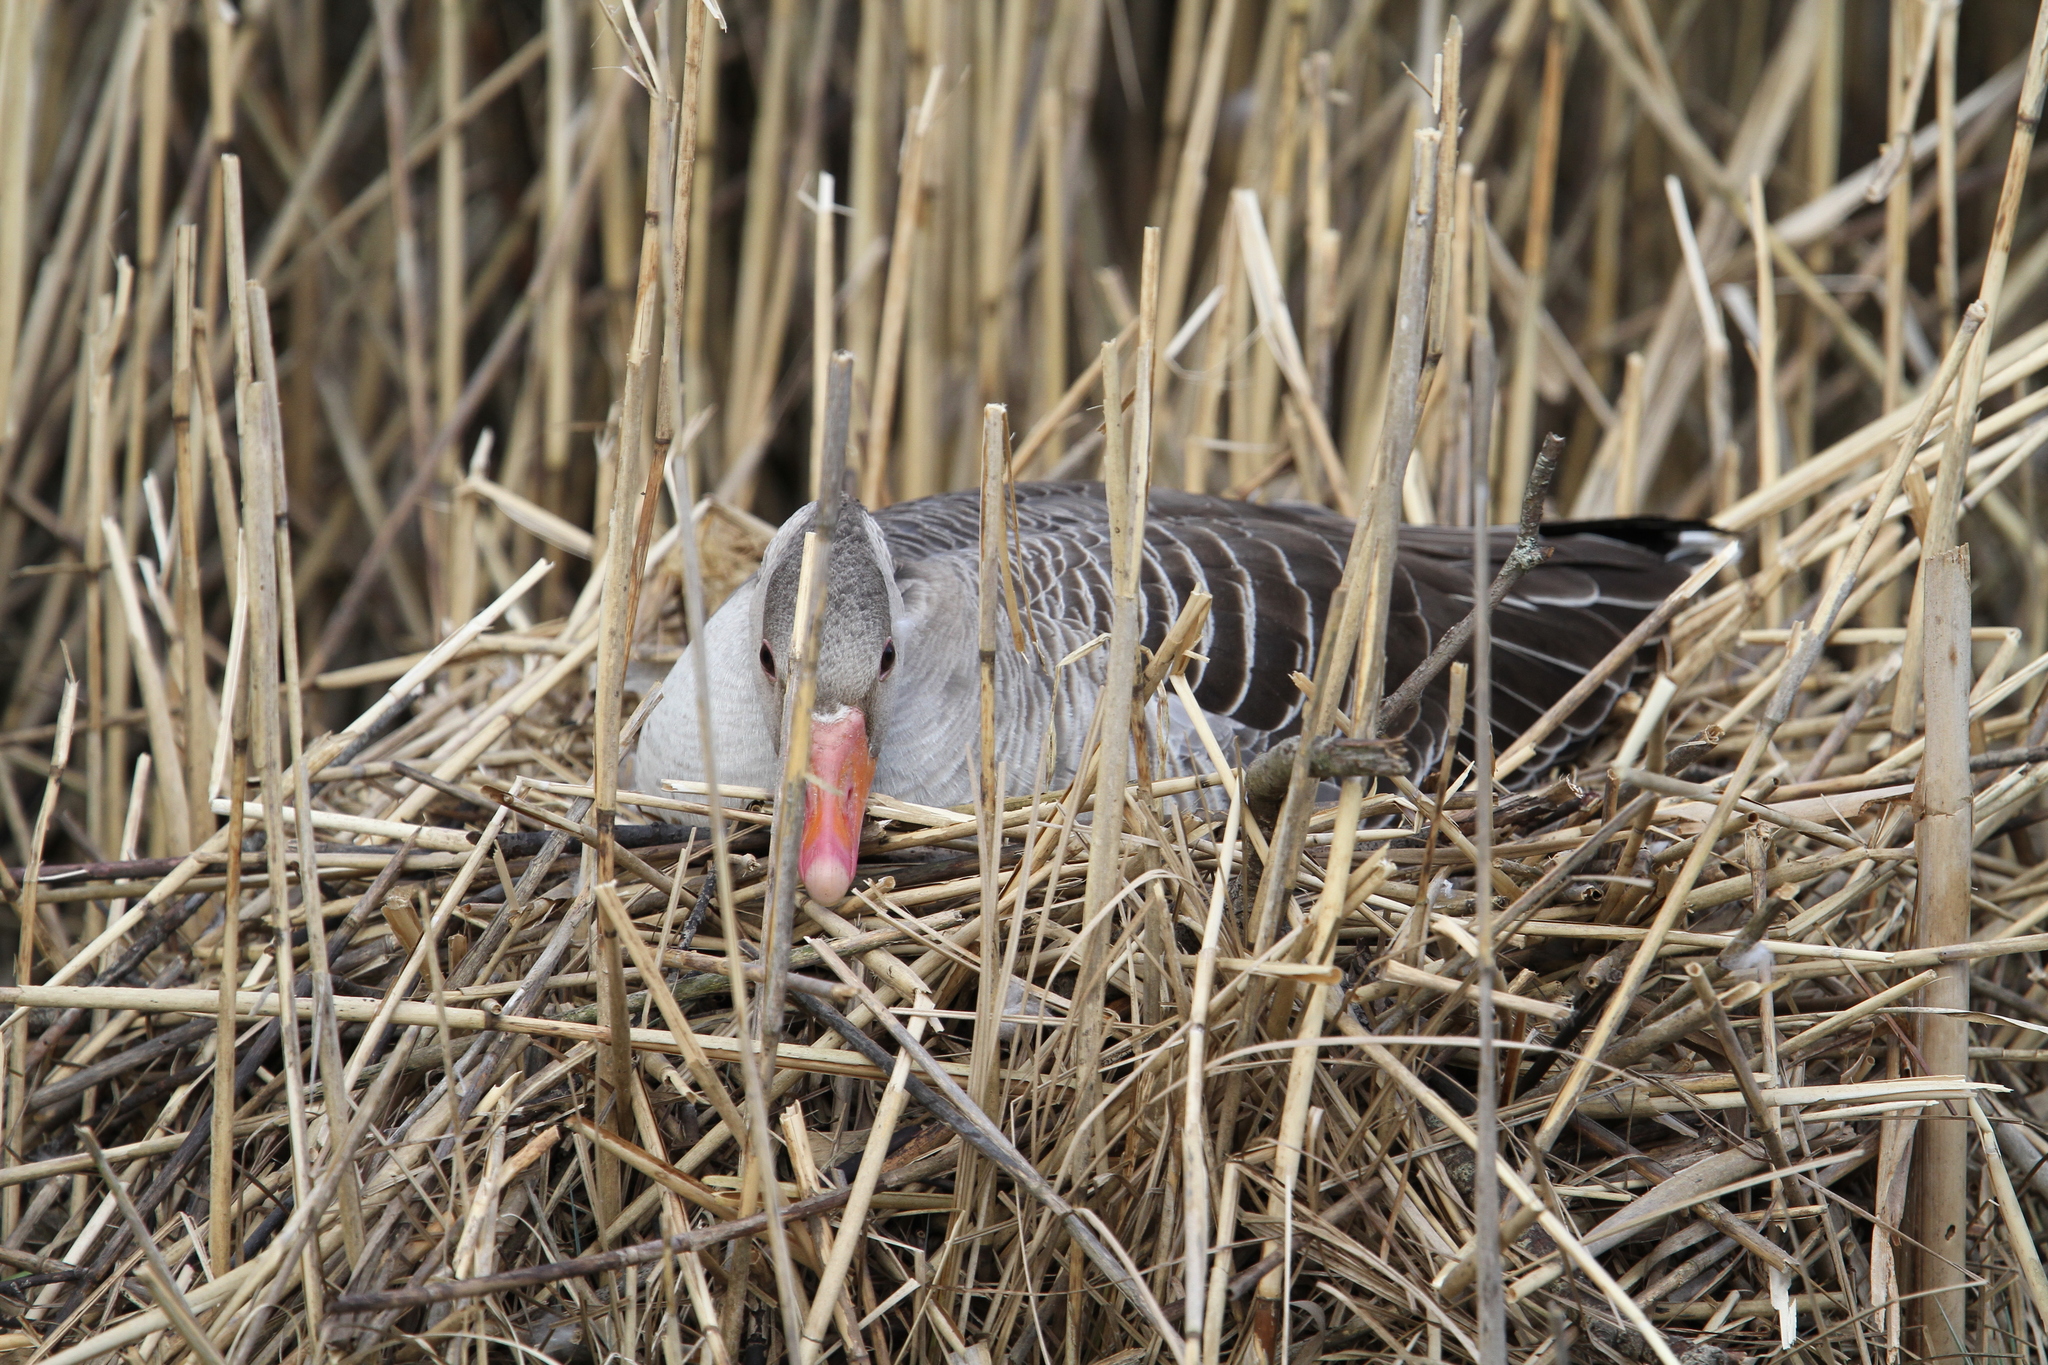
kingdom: Animalia
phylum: Chordata
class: Aves
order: Anseriformes
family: Anatidae
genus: Anser
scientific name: Anser anser
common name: Greylag goose
